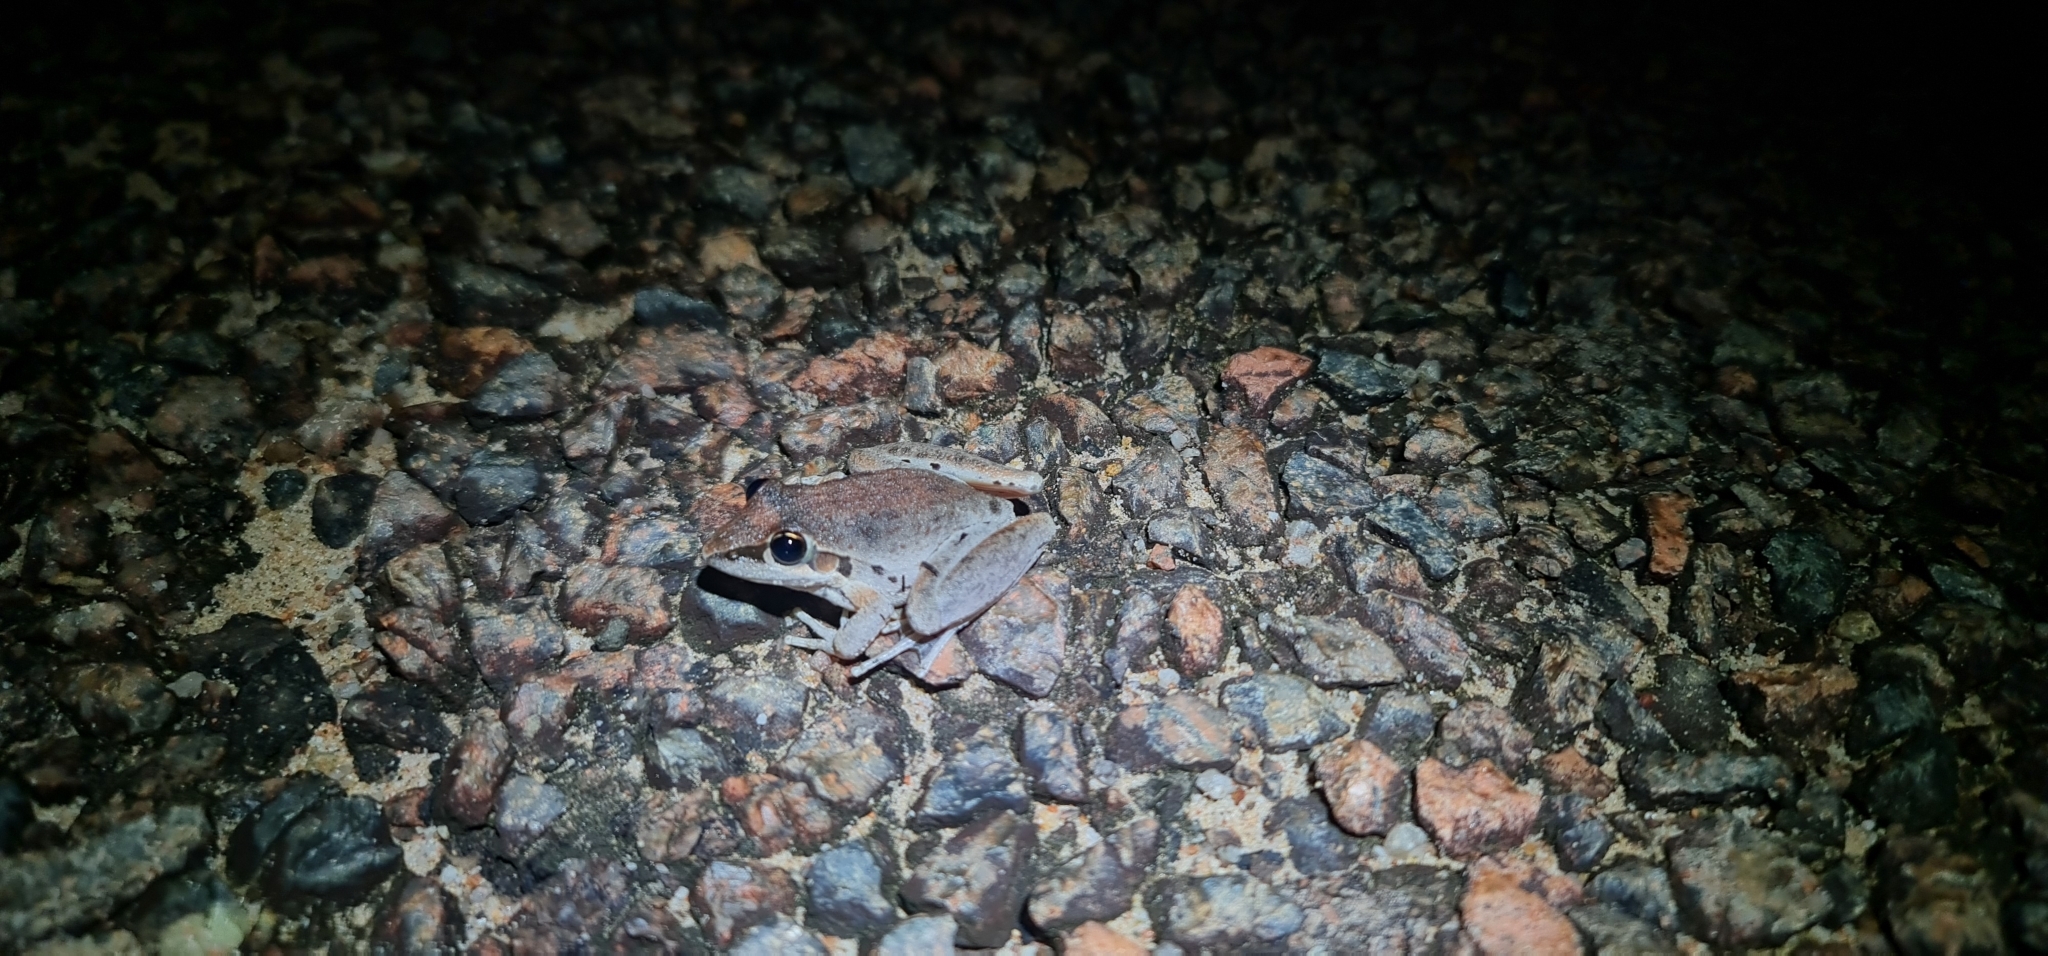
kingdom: Animalia
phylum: Chordata
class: Amphibia
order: Anura
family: Pelodryadidae
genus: Litoria
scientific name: Litoria latopalmata
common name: Broad-palmed rocket frog
